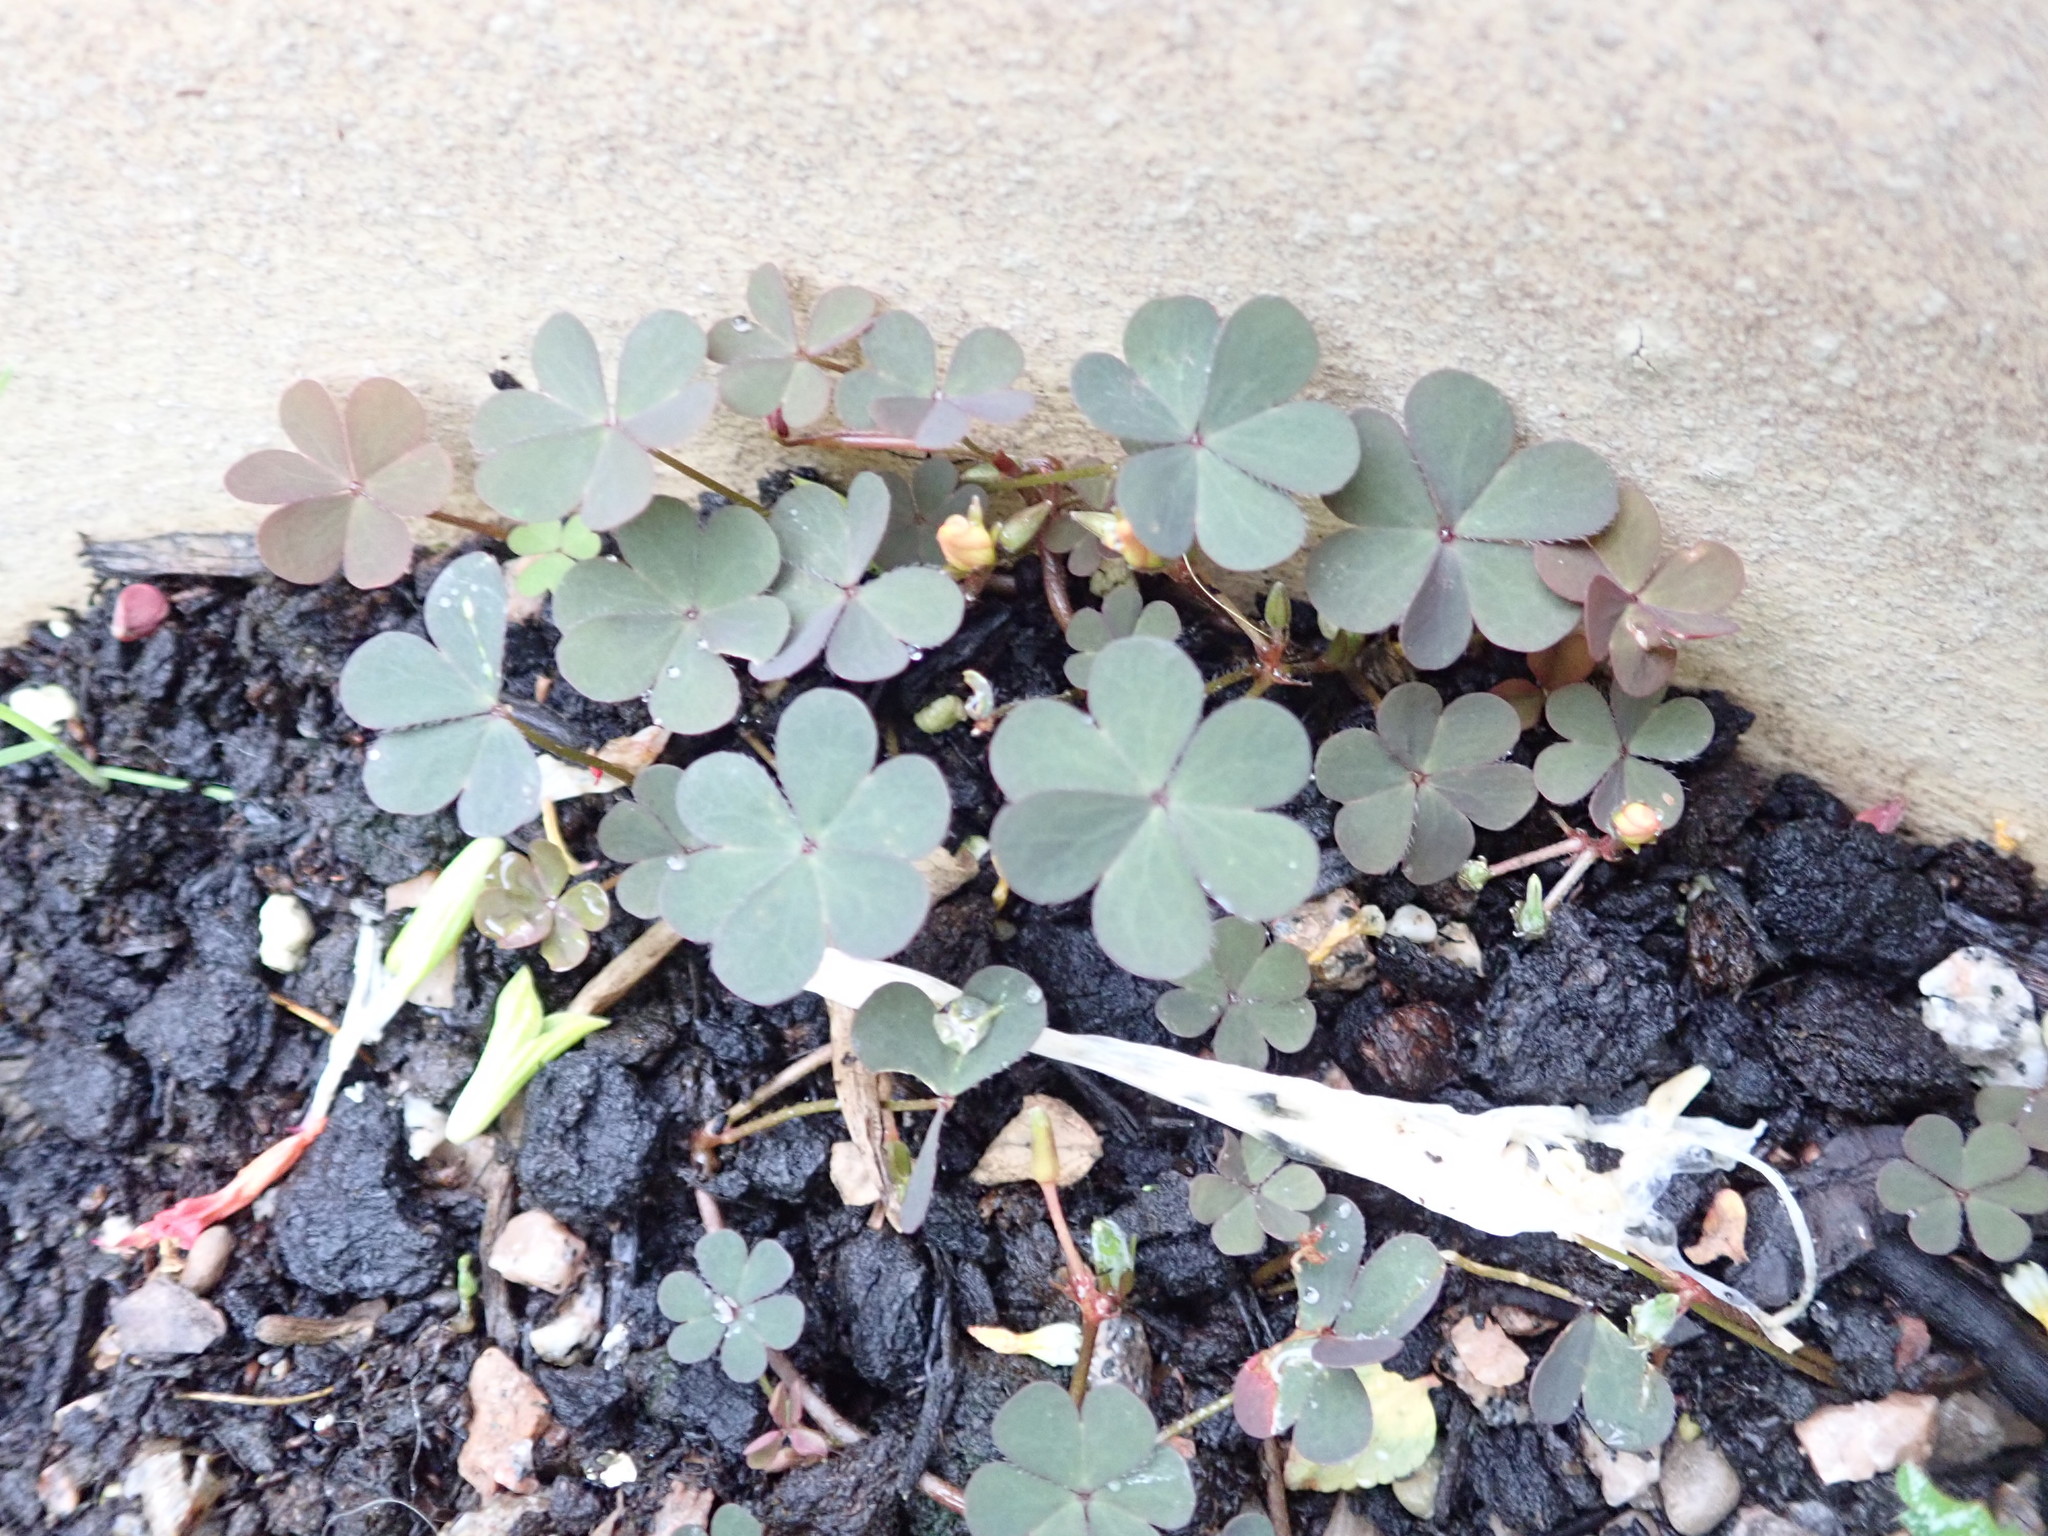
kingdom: Plantae
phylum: Tracheophyta
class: Magnoliopsida
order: Oxalidales
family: Oxalidaceae
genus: Oxalis
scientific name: Oxalis corniculata
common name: Procumbent yellow-sorrel
